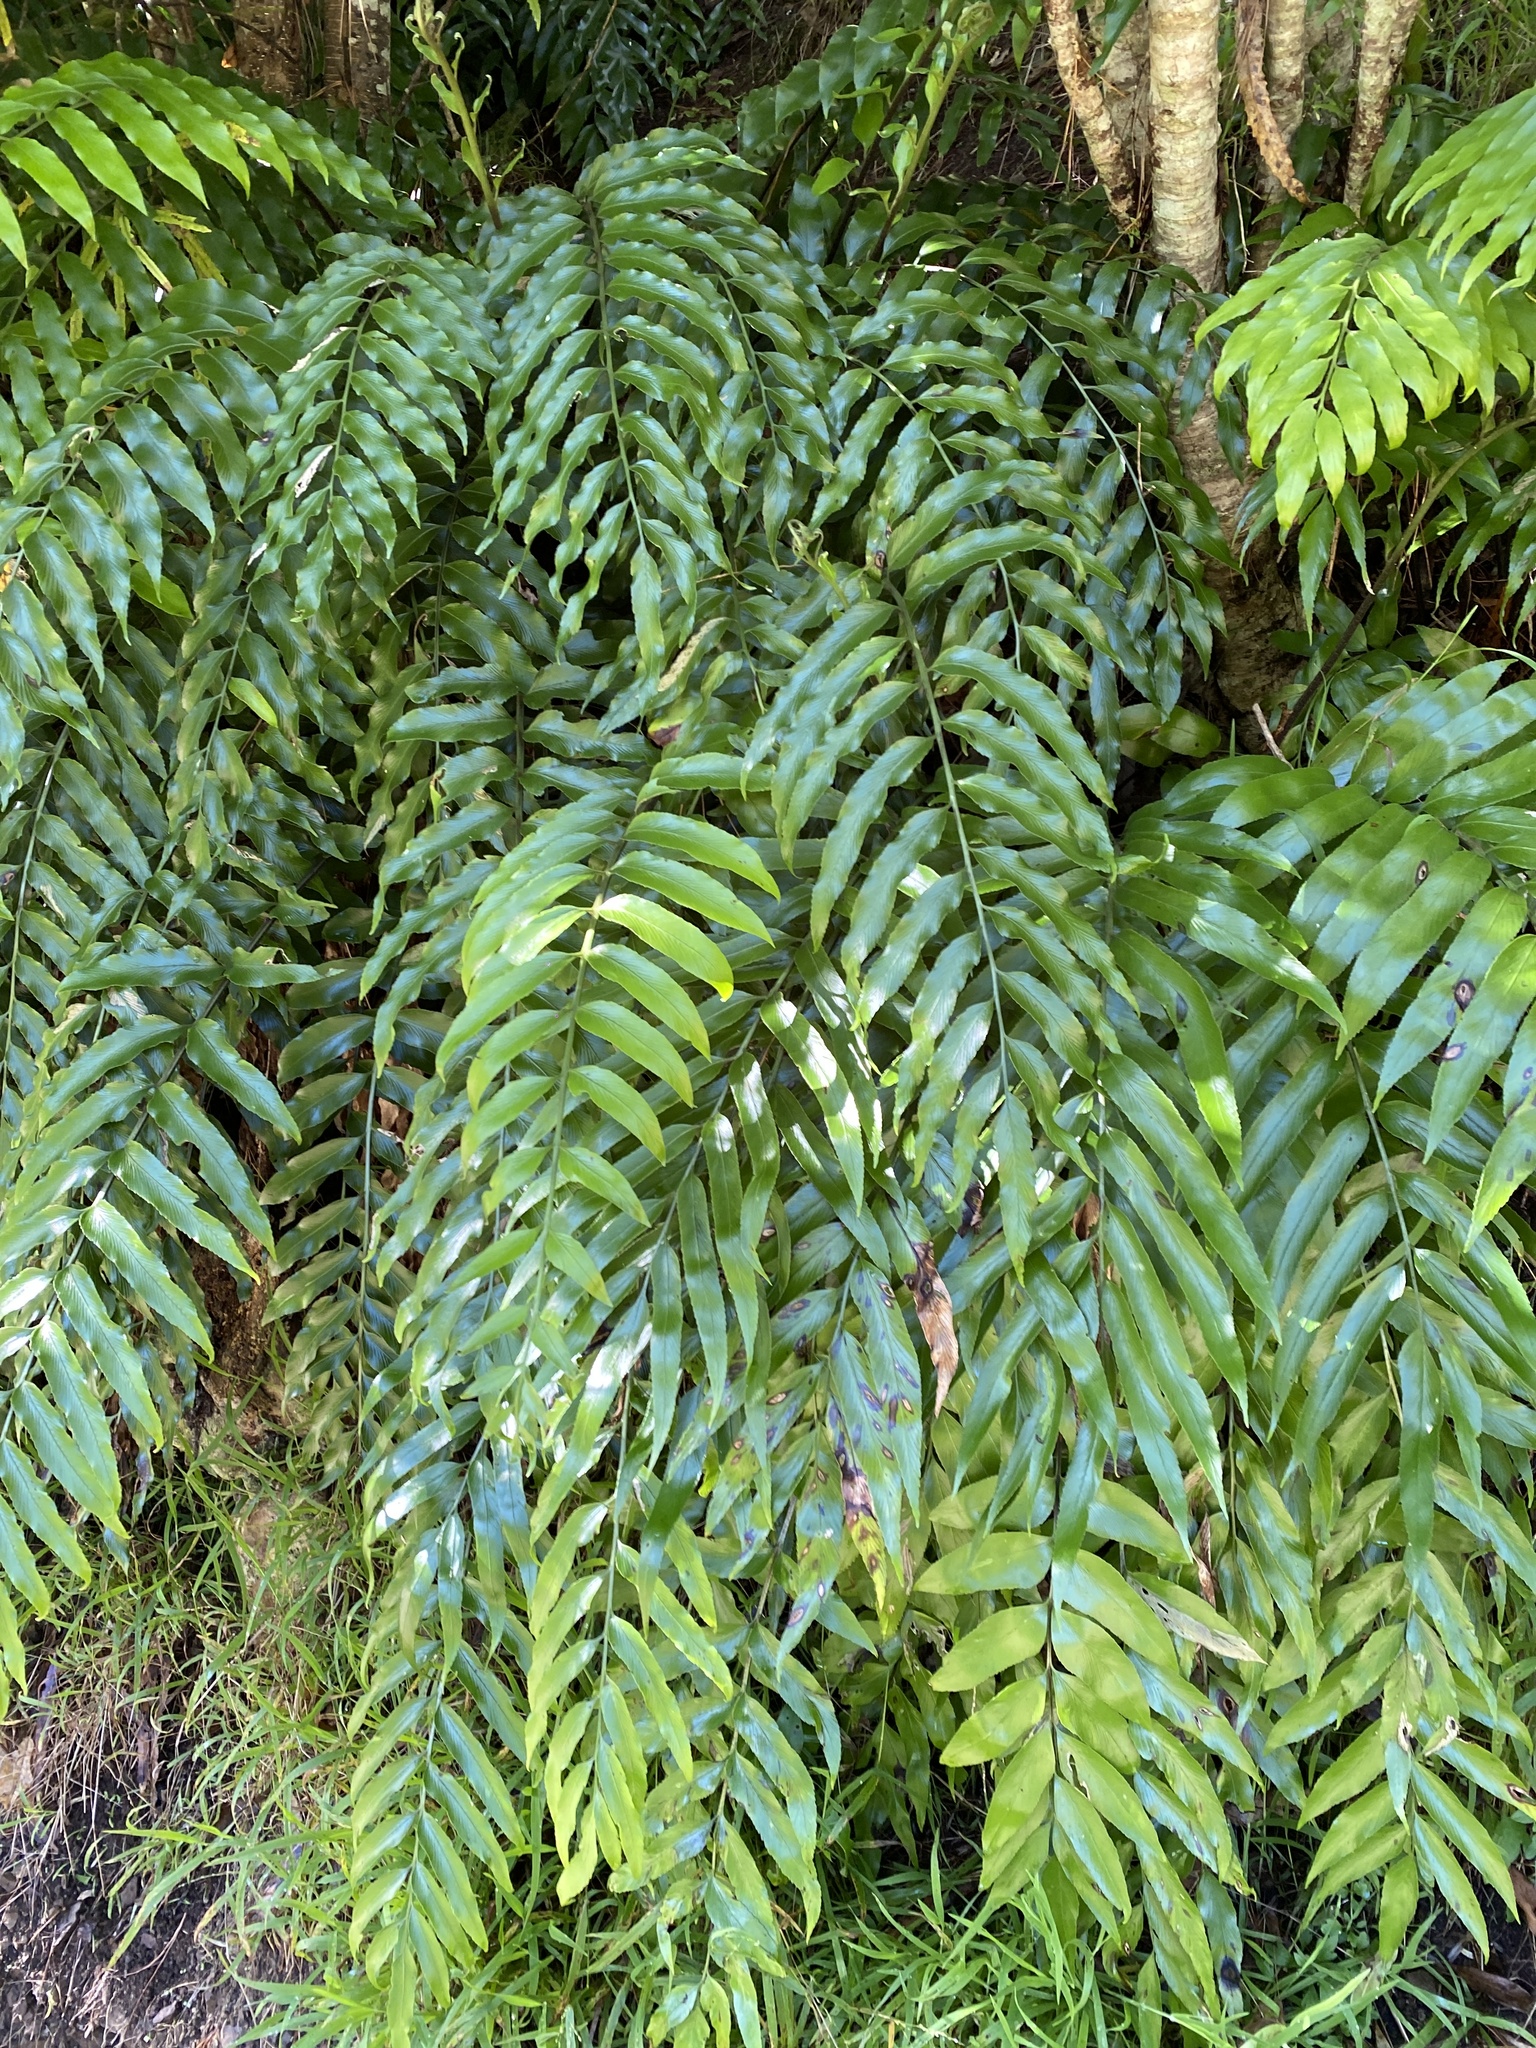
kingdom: Plantae
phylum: Tracheophyta
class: Polypodiopsida
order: Polypodiales
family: Aspleniaceae
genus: Asplenium
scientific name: Asplenium oblongifolium
